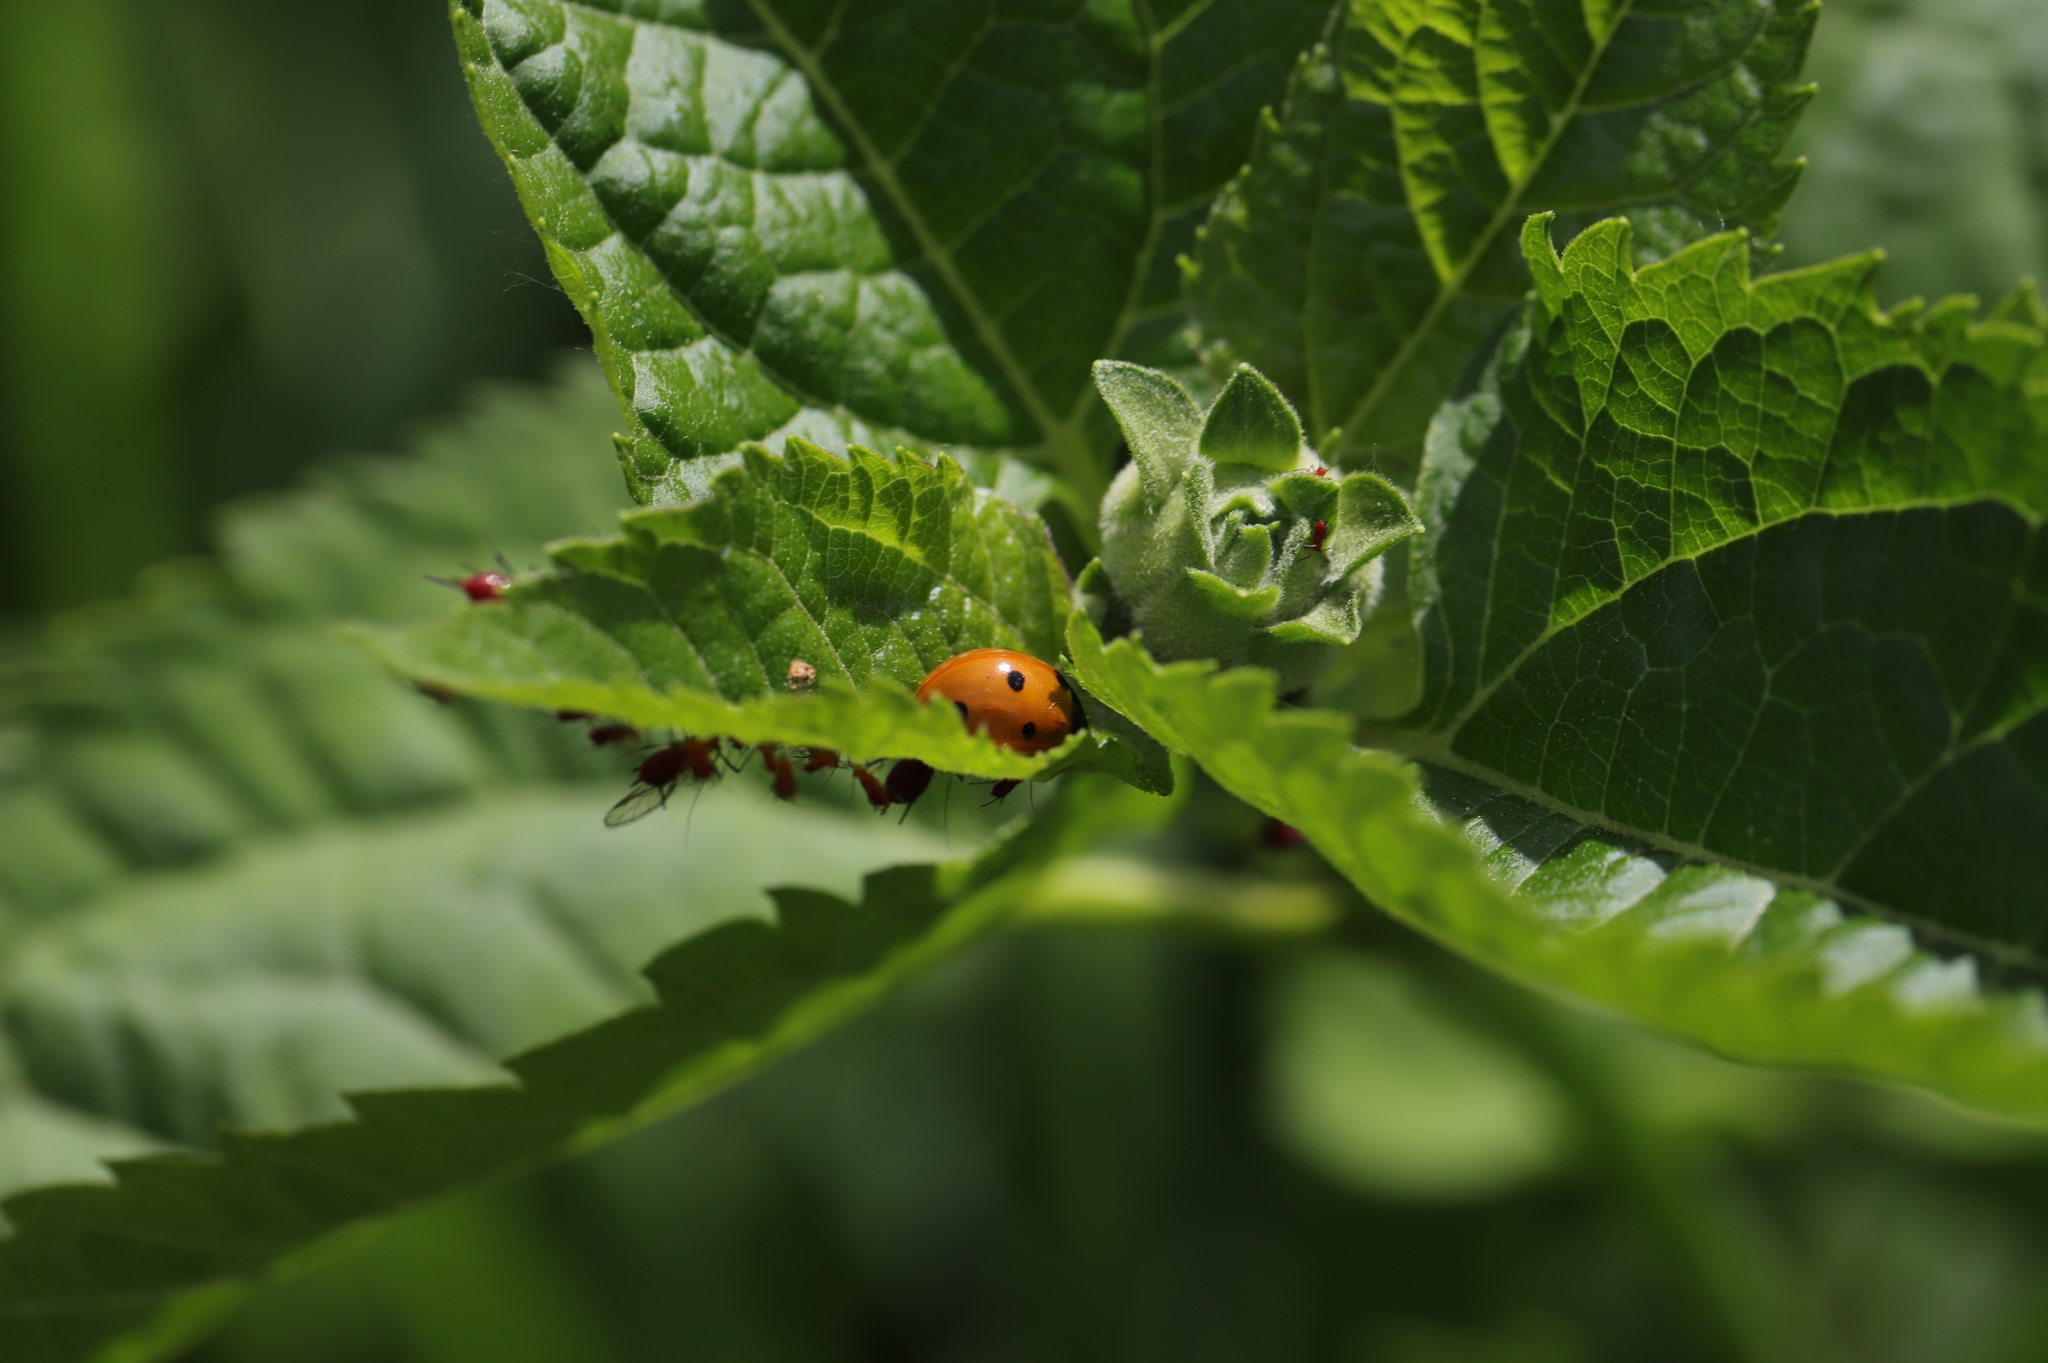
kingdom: Animalia
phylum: Arthropoda
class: Insecta
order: Coleoptera
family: Coccinellidae
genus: Coccinella
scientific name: Coccinella septempunctata
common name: Sevenspotted lady beetle
